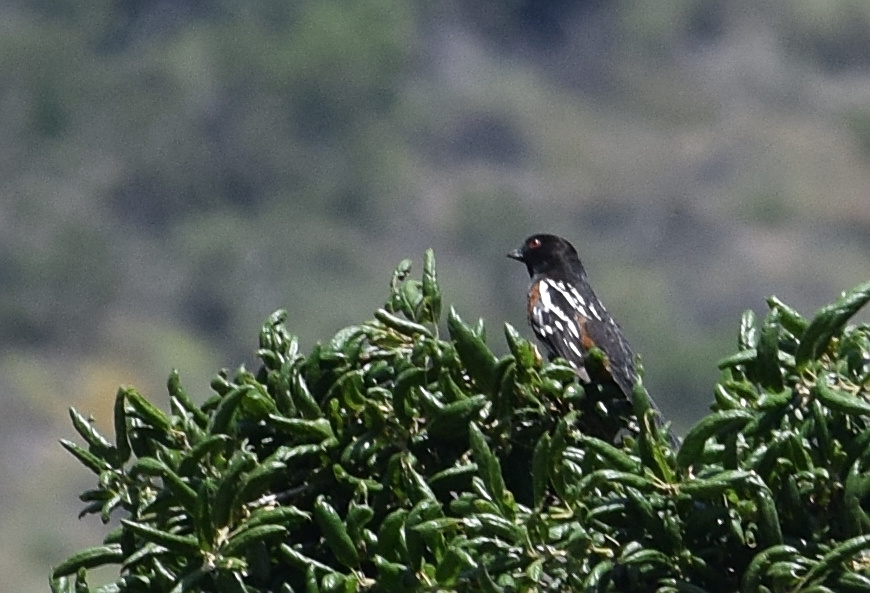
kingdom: Animalia
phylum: Chordata
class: Aves
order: Passeriformes
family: Passerellidae
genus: Pipilo
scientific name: Pipilo maculatus
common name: Spotted towhee
